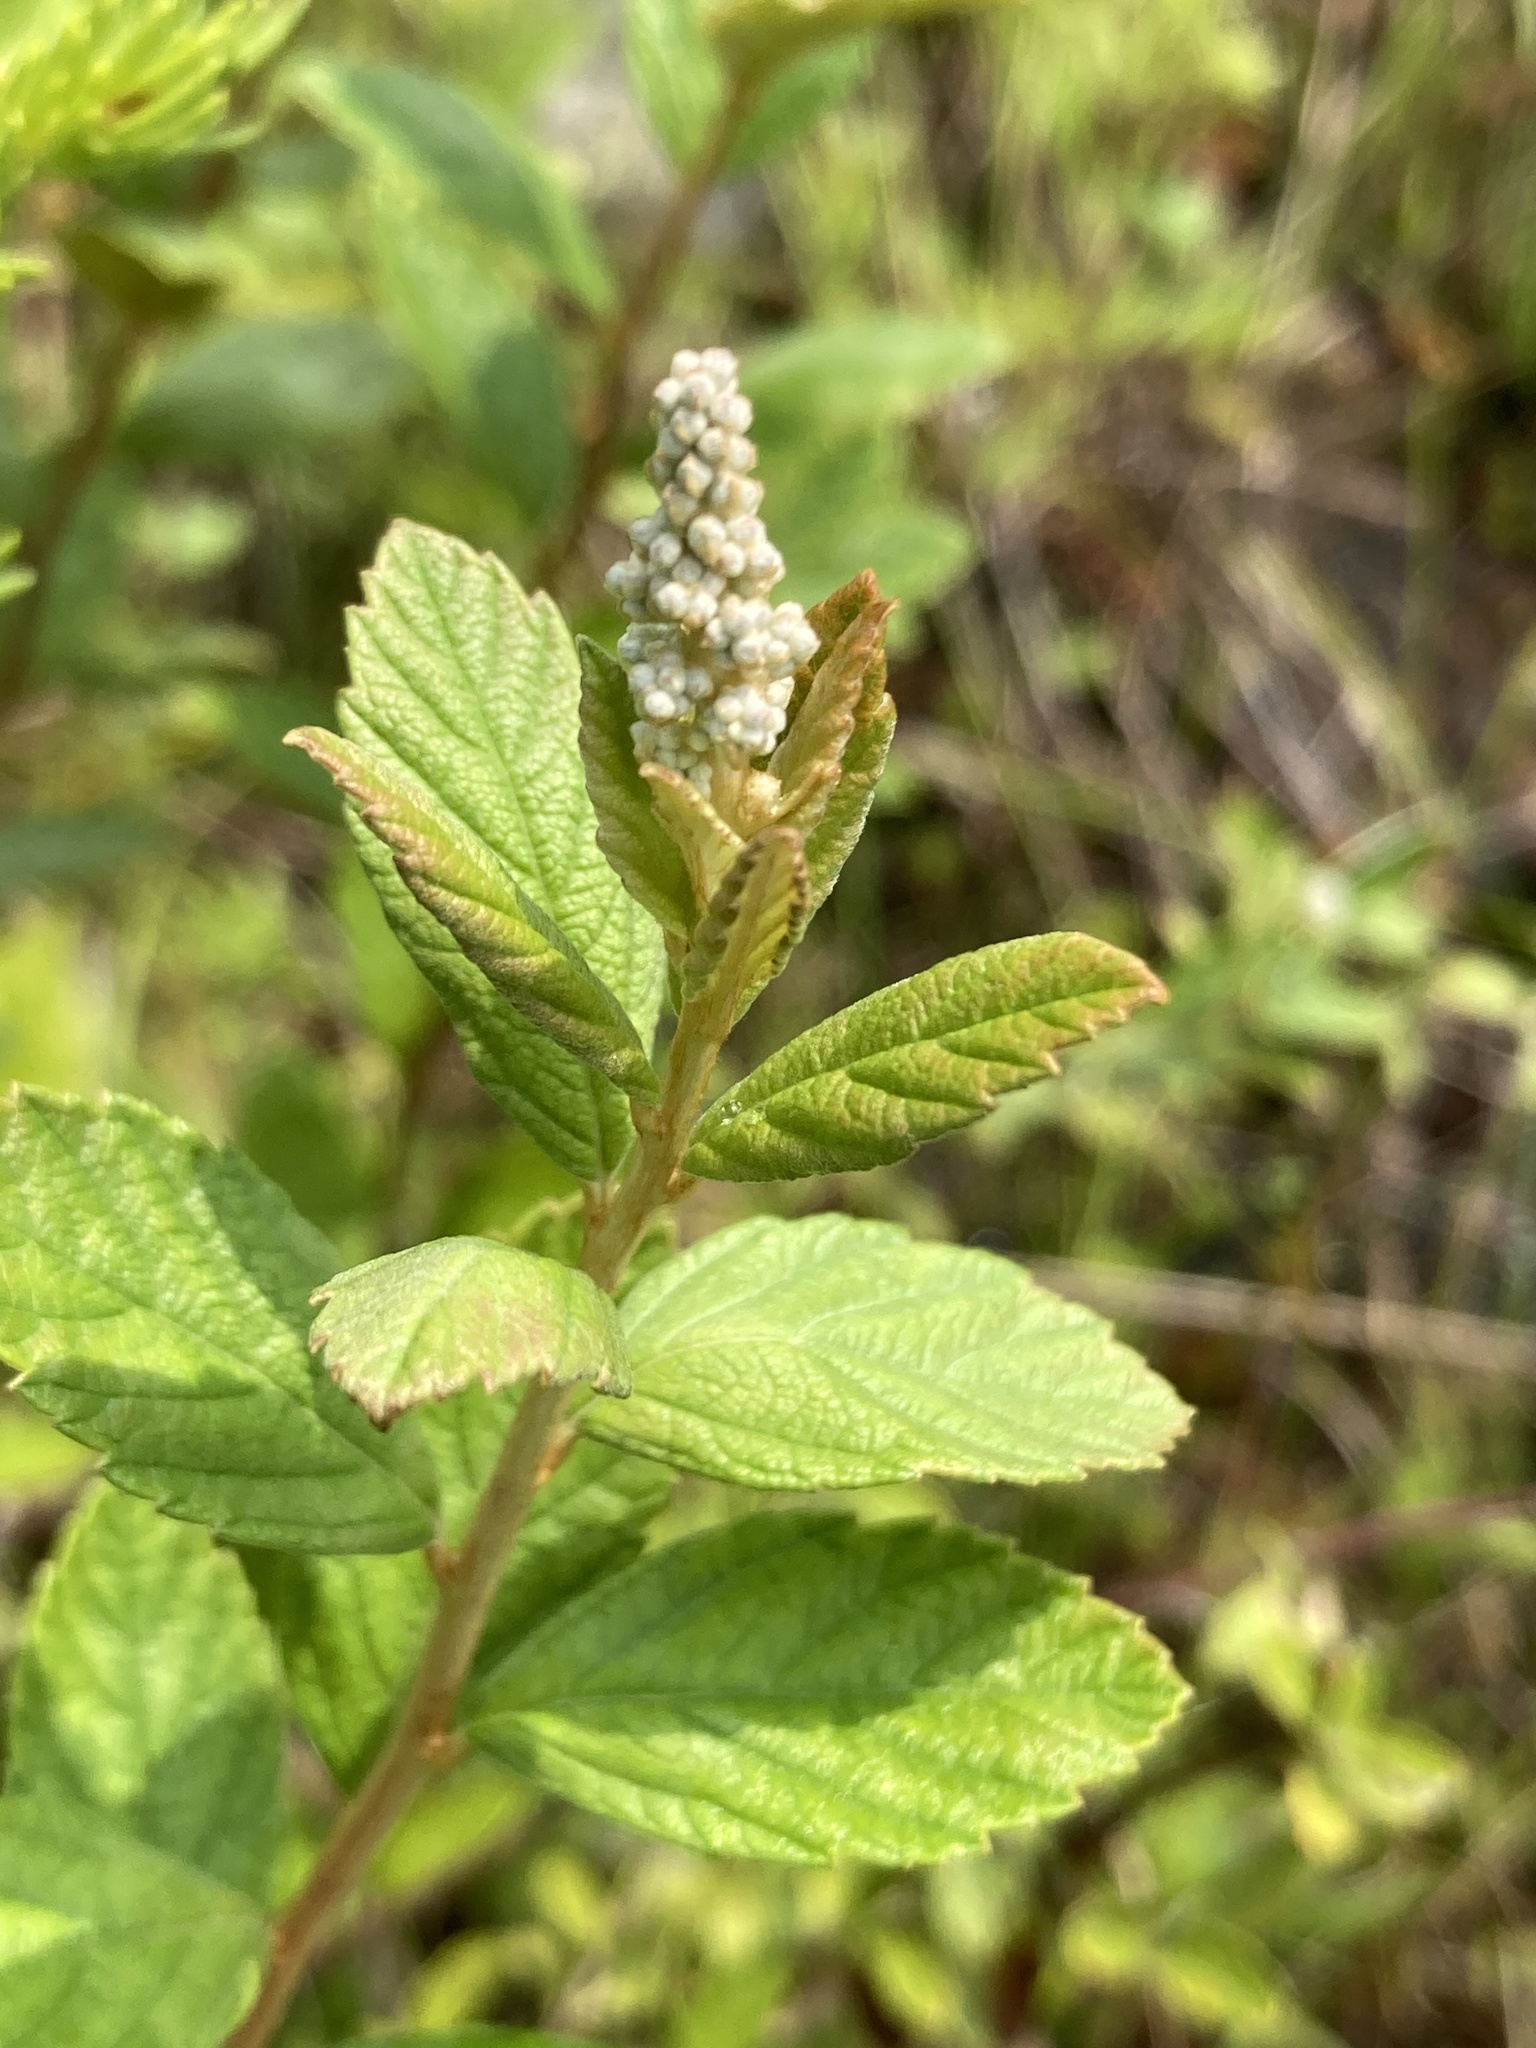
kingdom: Plantae
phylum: Tracheophyta
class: Magnoliopsida
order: Rosales
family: Rosaceae
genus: Spiraea
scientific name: Spiraea tomentosa
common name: Hardhack
